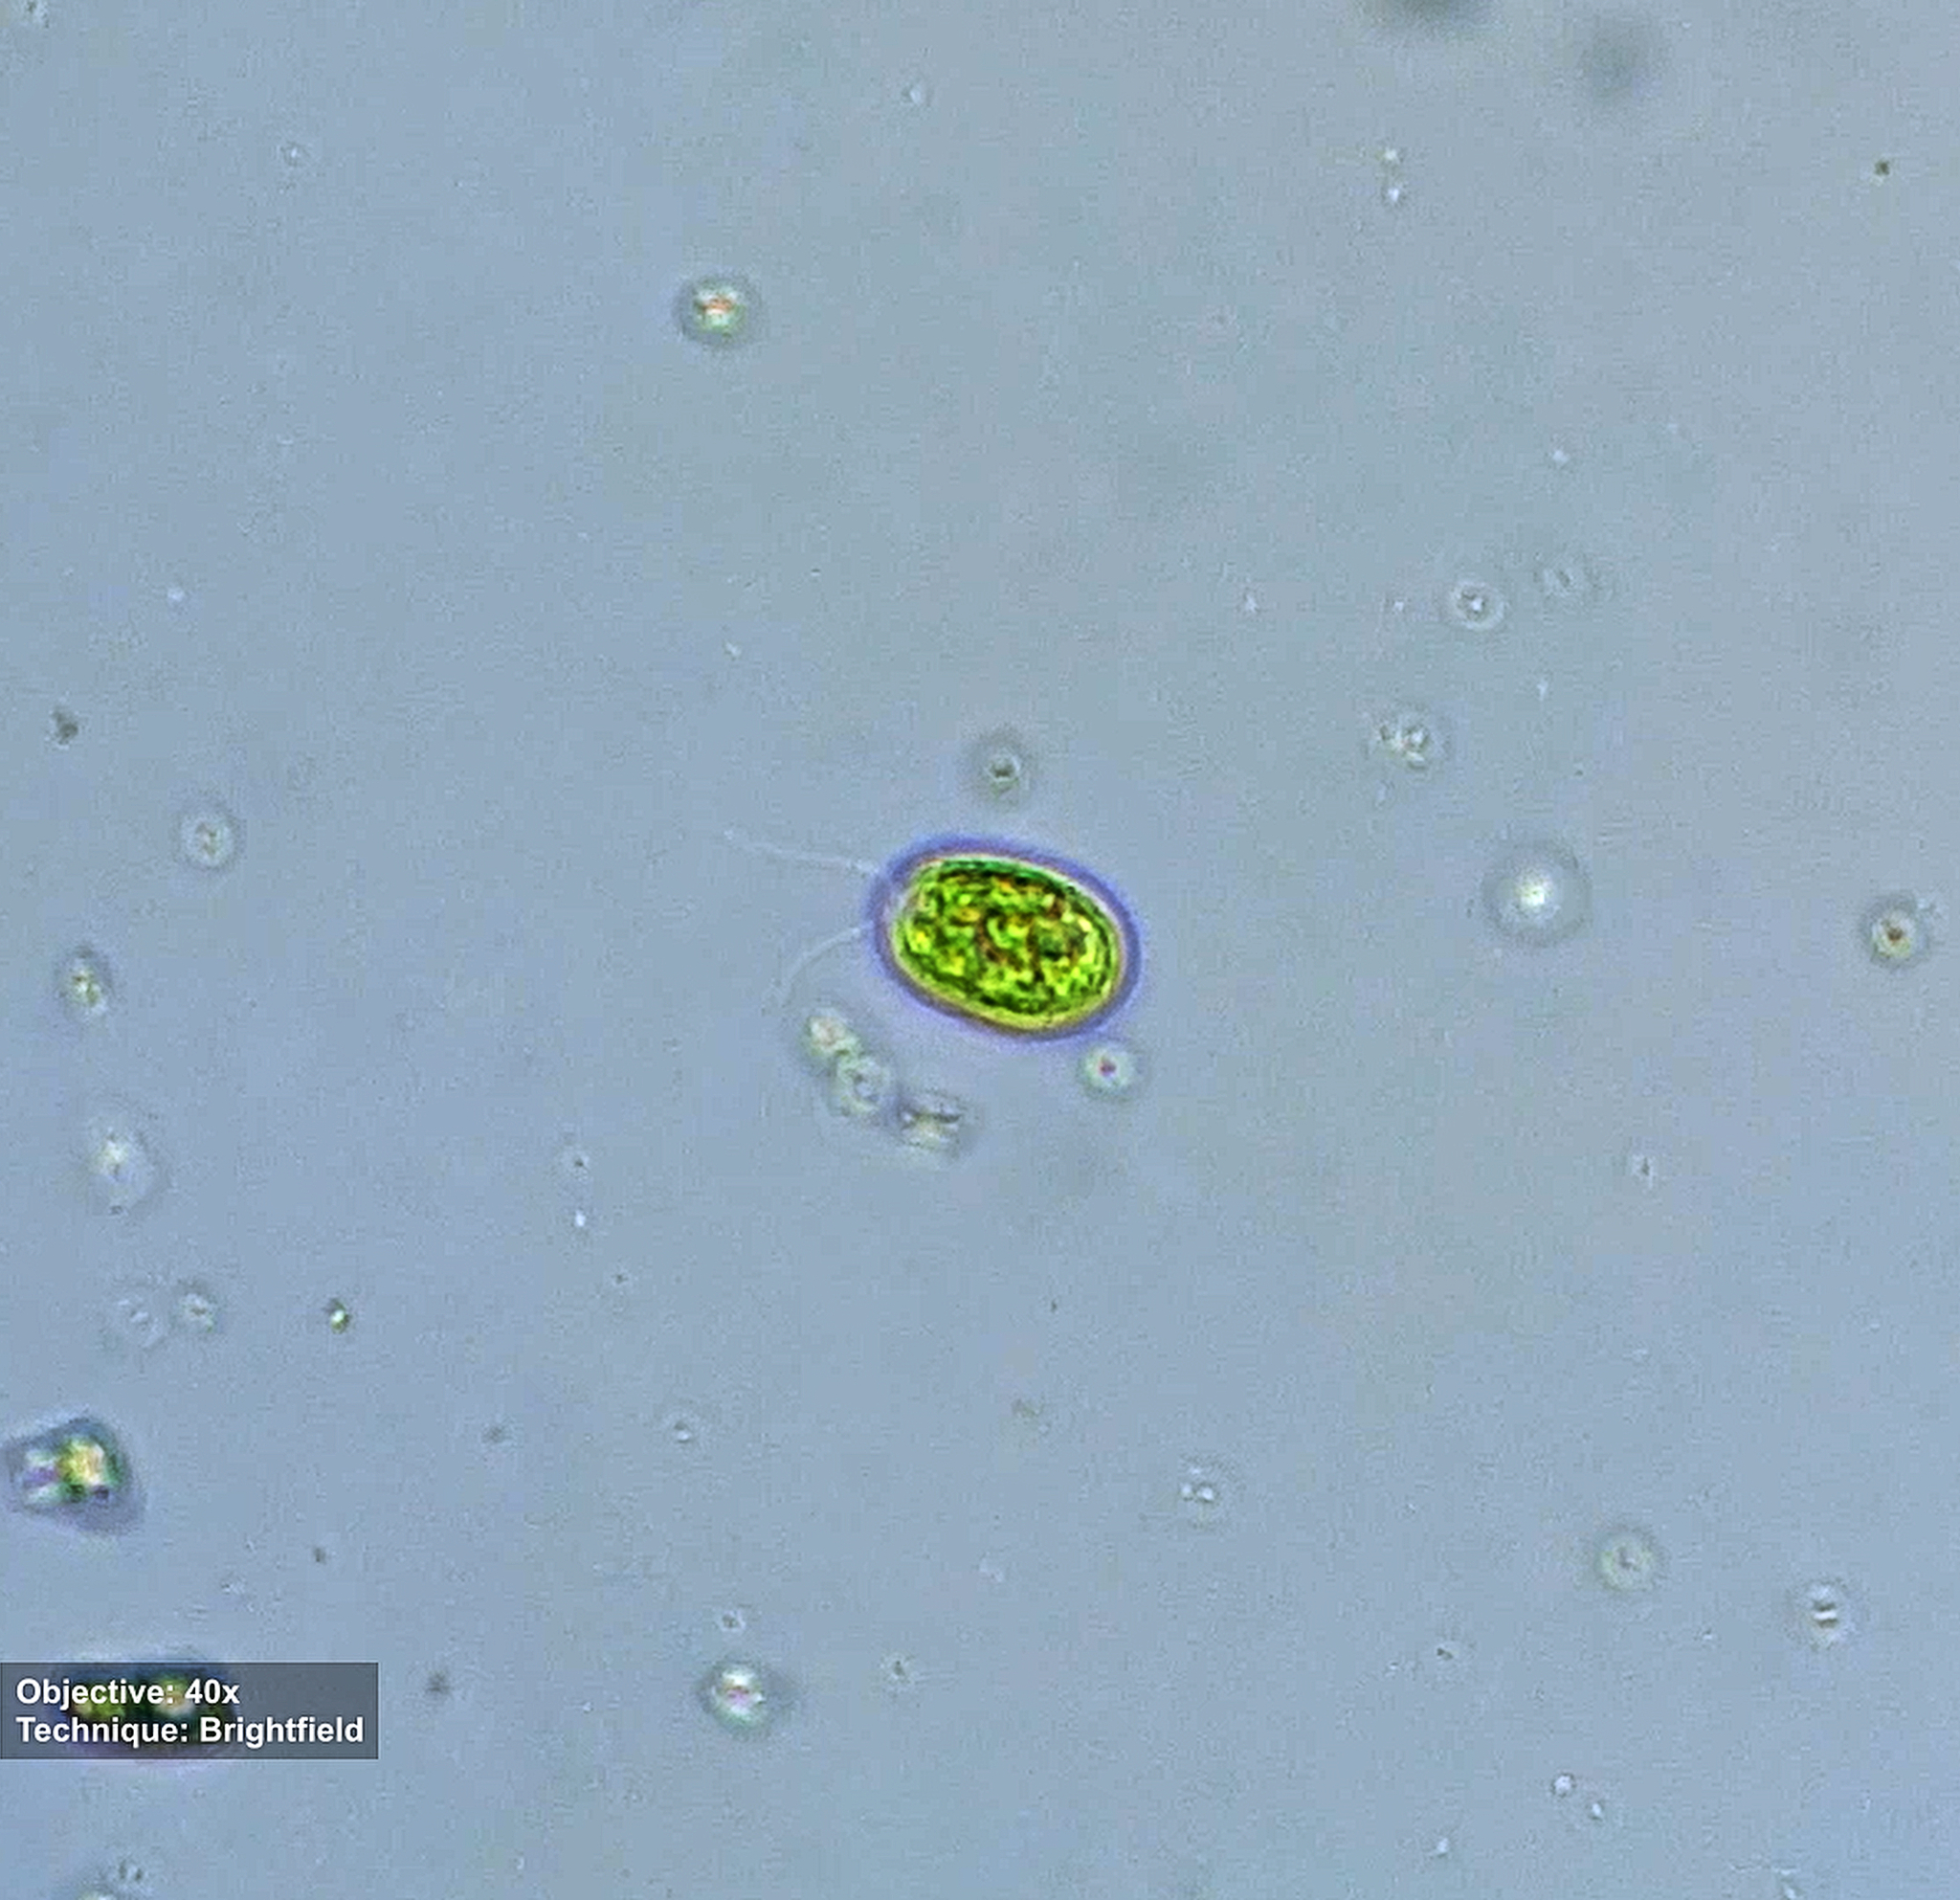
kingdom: Plantae
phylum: Chlorophyta
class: Chlorophyceae
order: Volvocales
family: Chlamydomonadaceae
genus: Chlamydomonas
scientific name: Chlamydomonas
